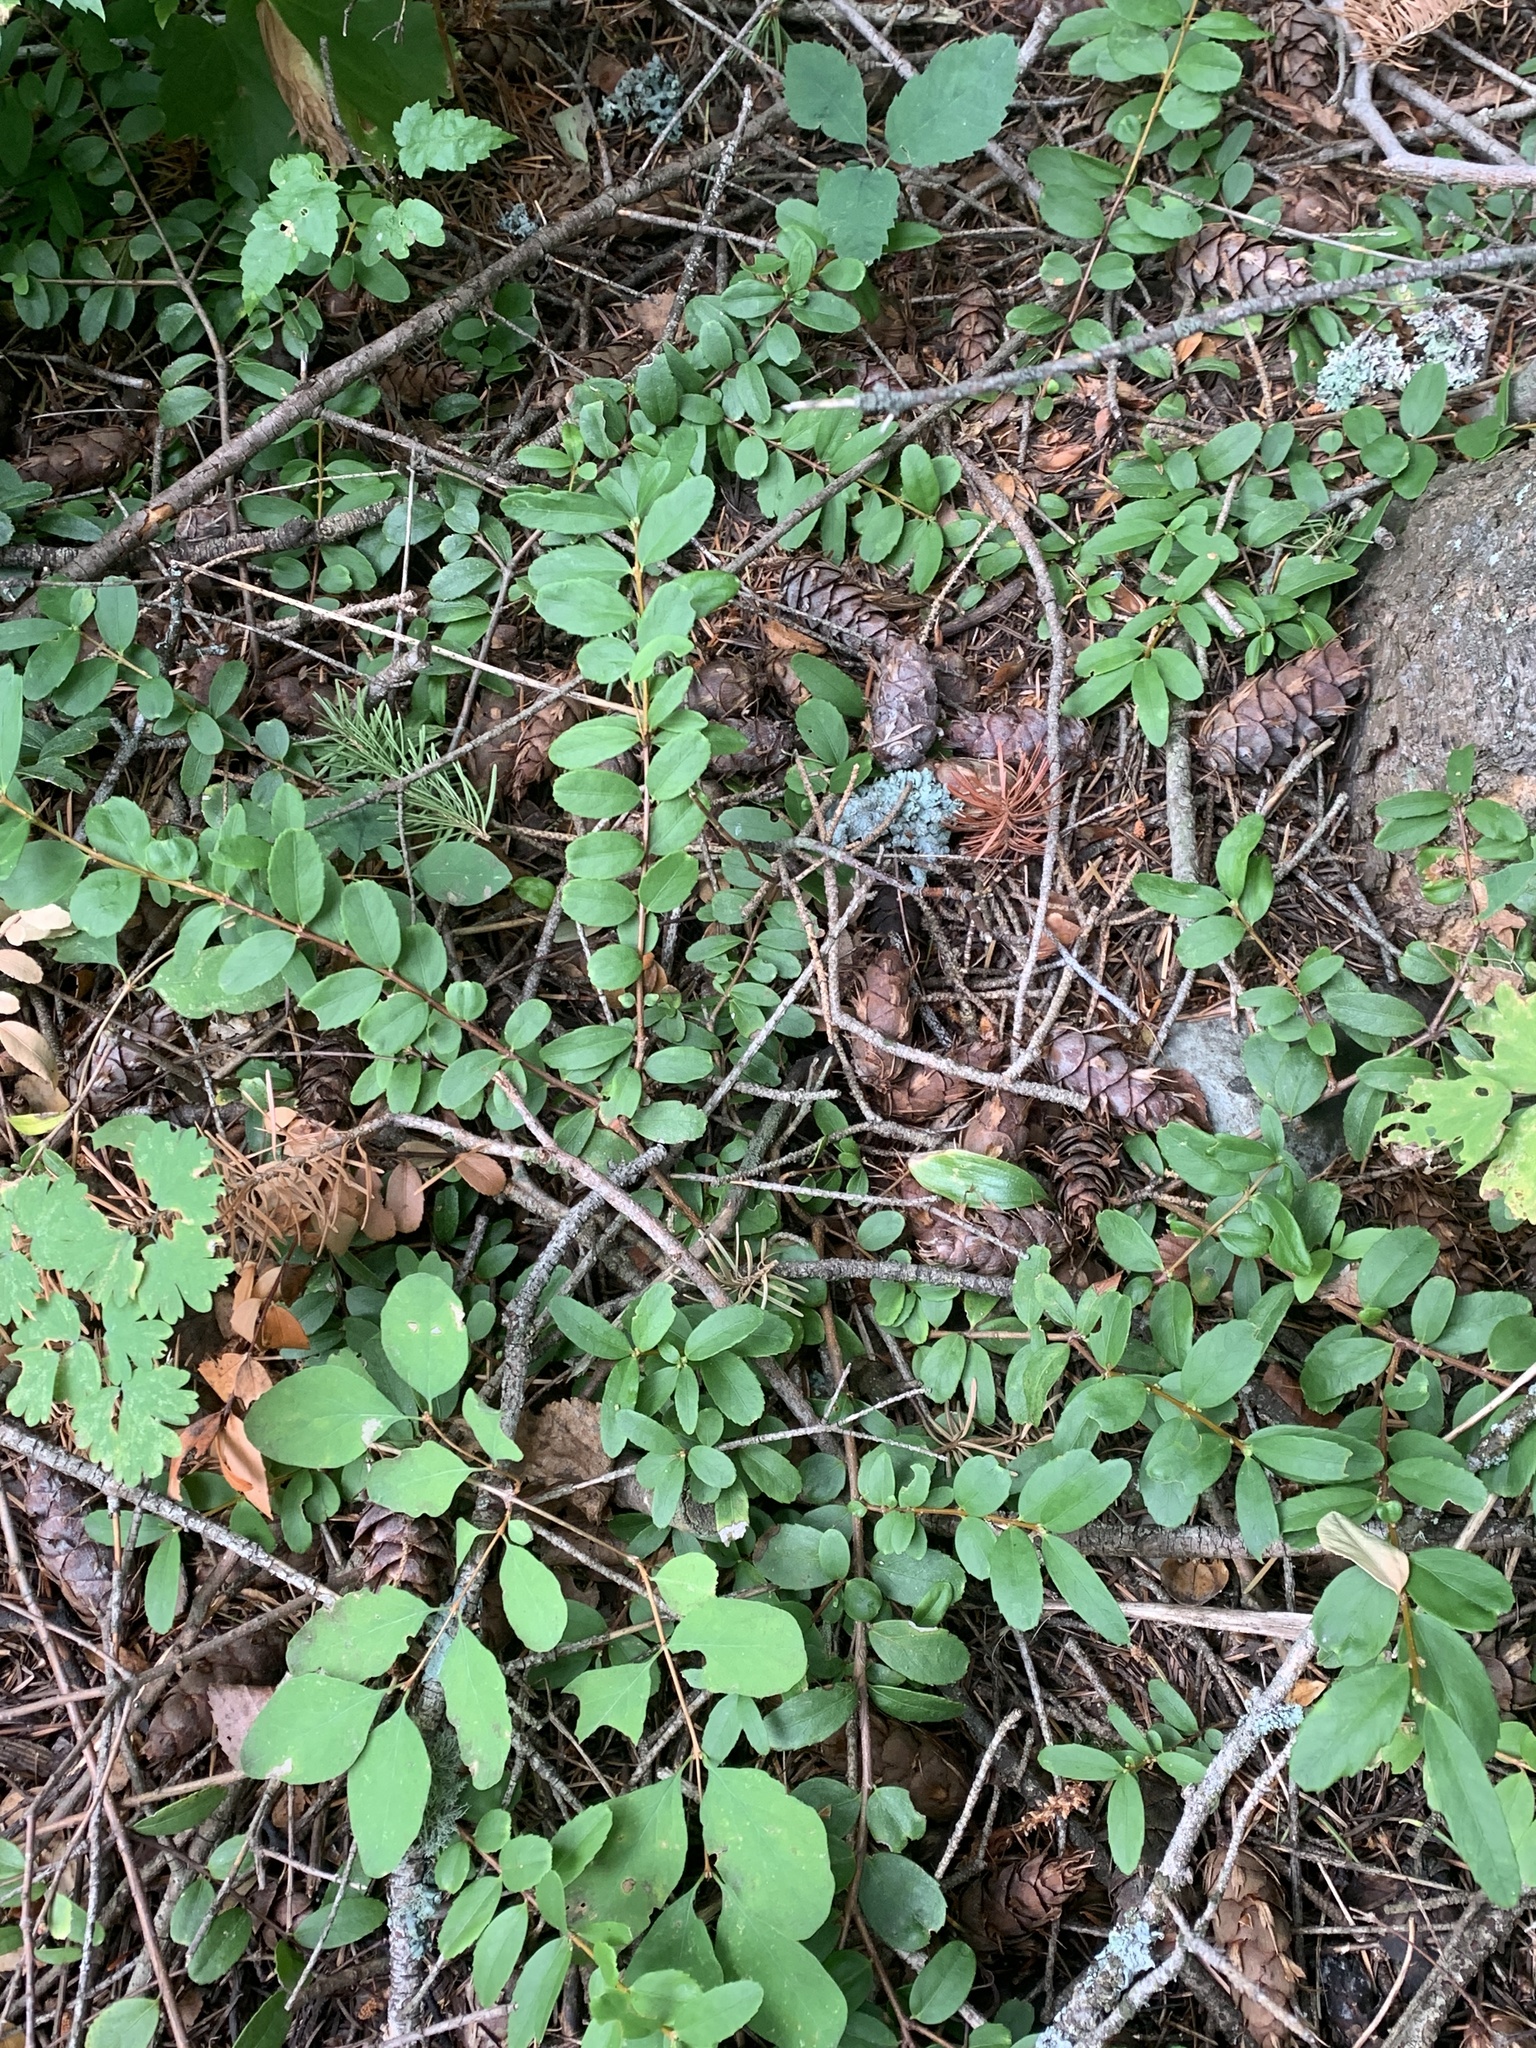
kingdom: Plantae
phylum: Tracheophyta
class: Magnoliopsida
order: Celastrales
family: Celastraceae
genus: Paxistima
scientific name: Paxistima myrsinites
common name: Mountain-lover
